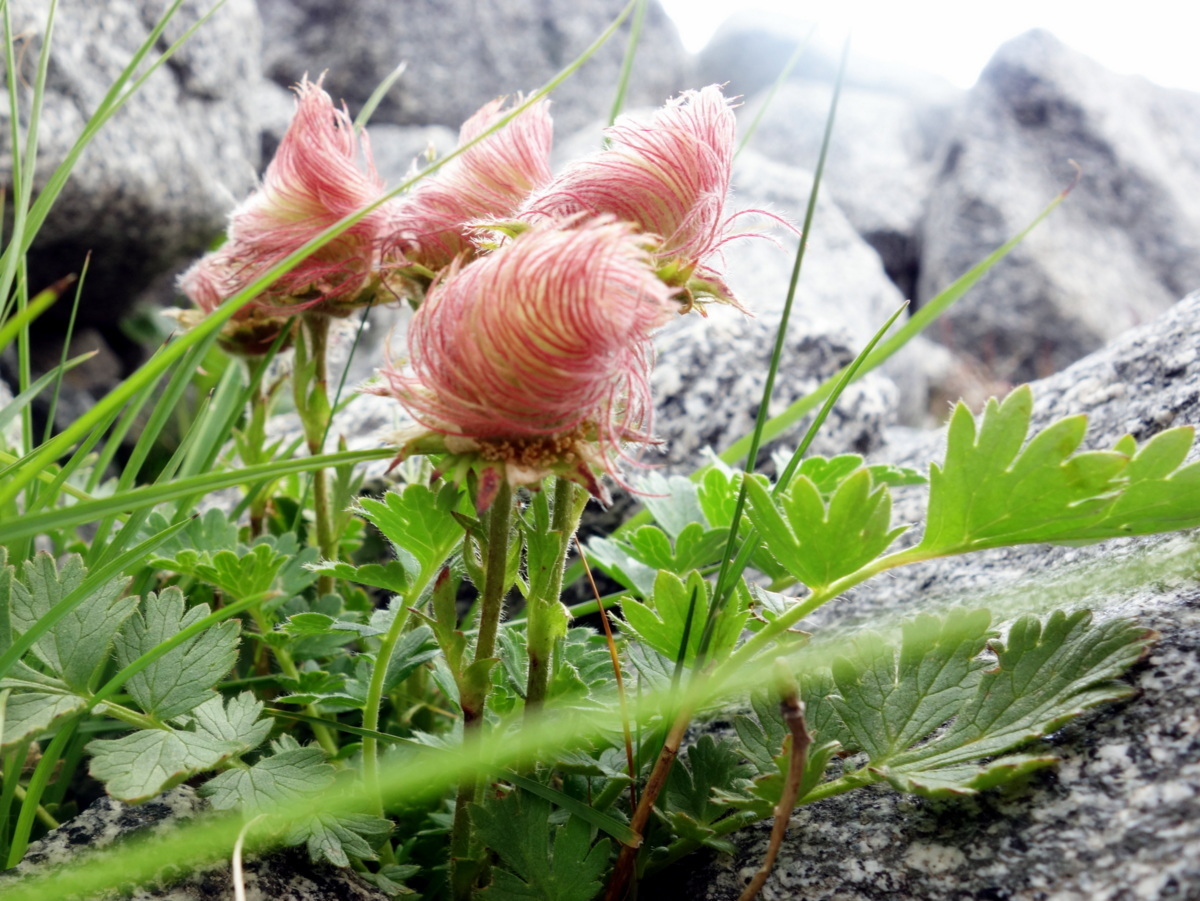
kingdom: Plantae
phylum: Tracheophyta
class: Magnoliopsida
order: Rosales
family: Rosaceae
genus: Geum
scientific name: Geum reptans
